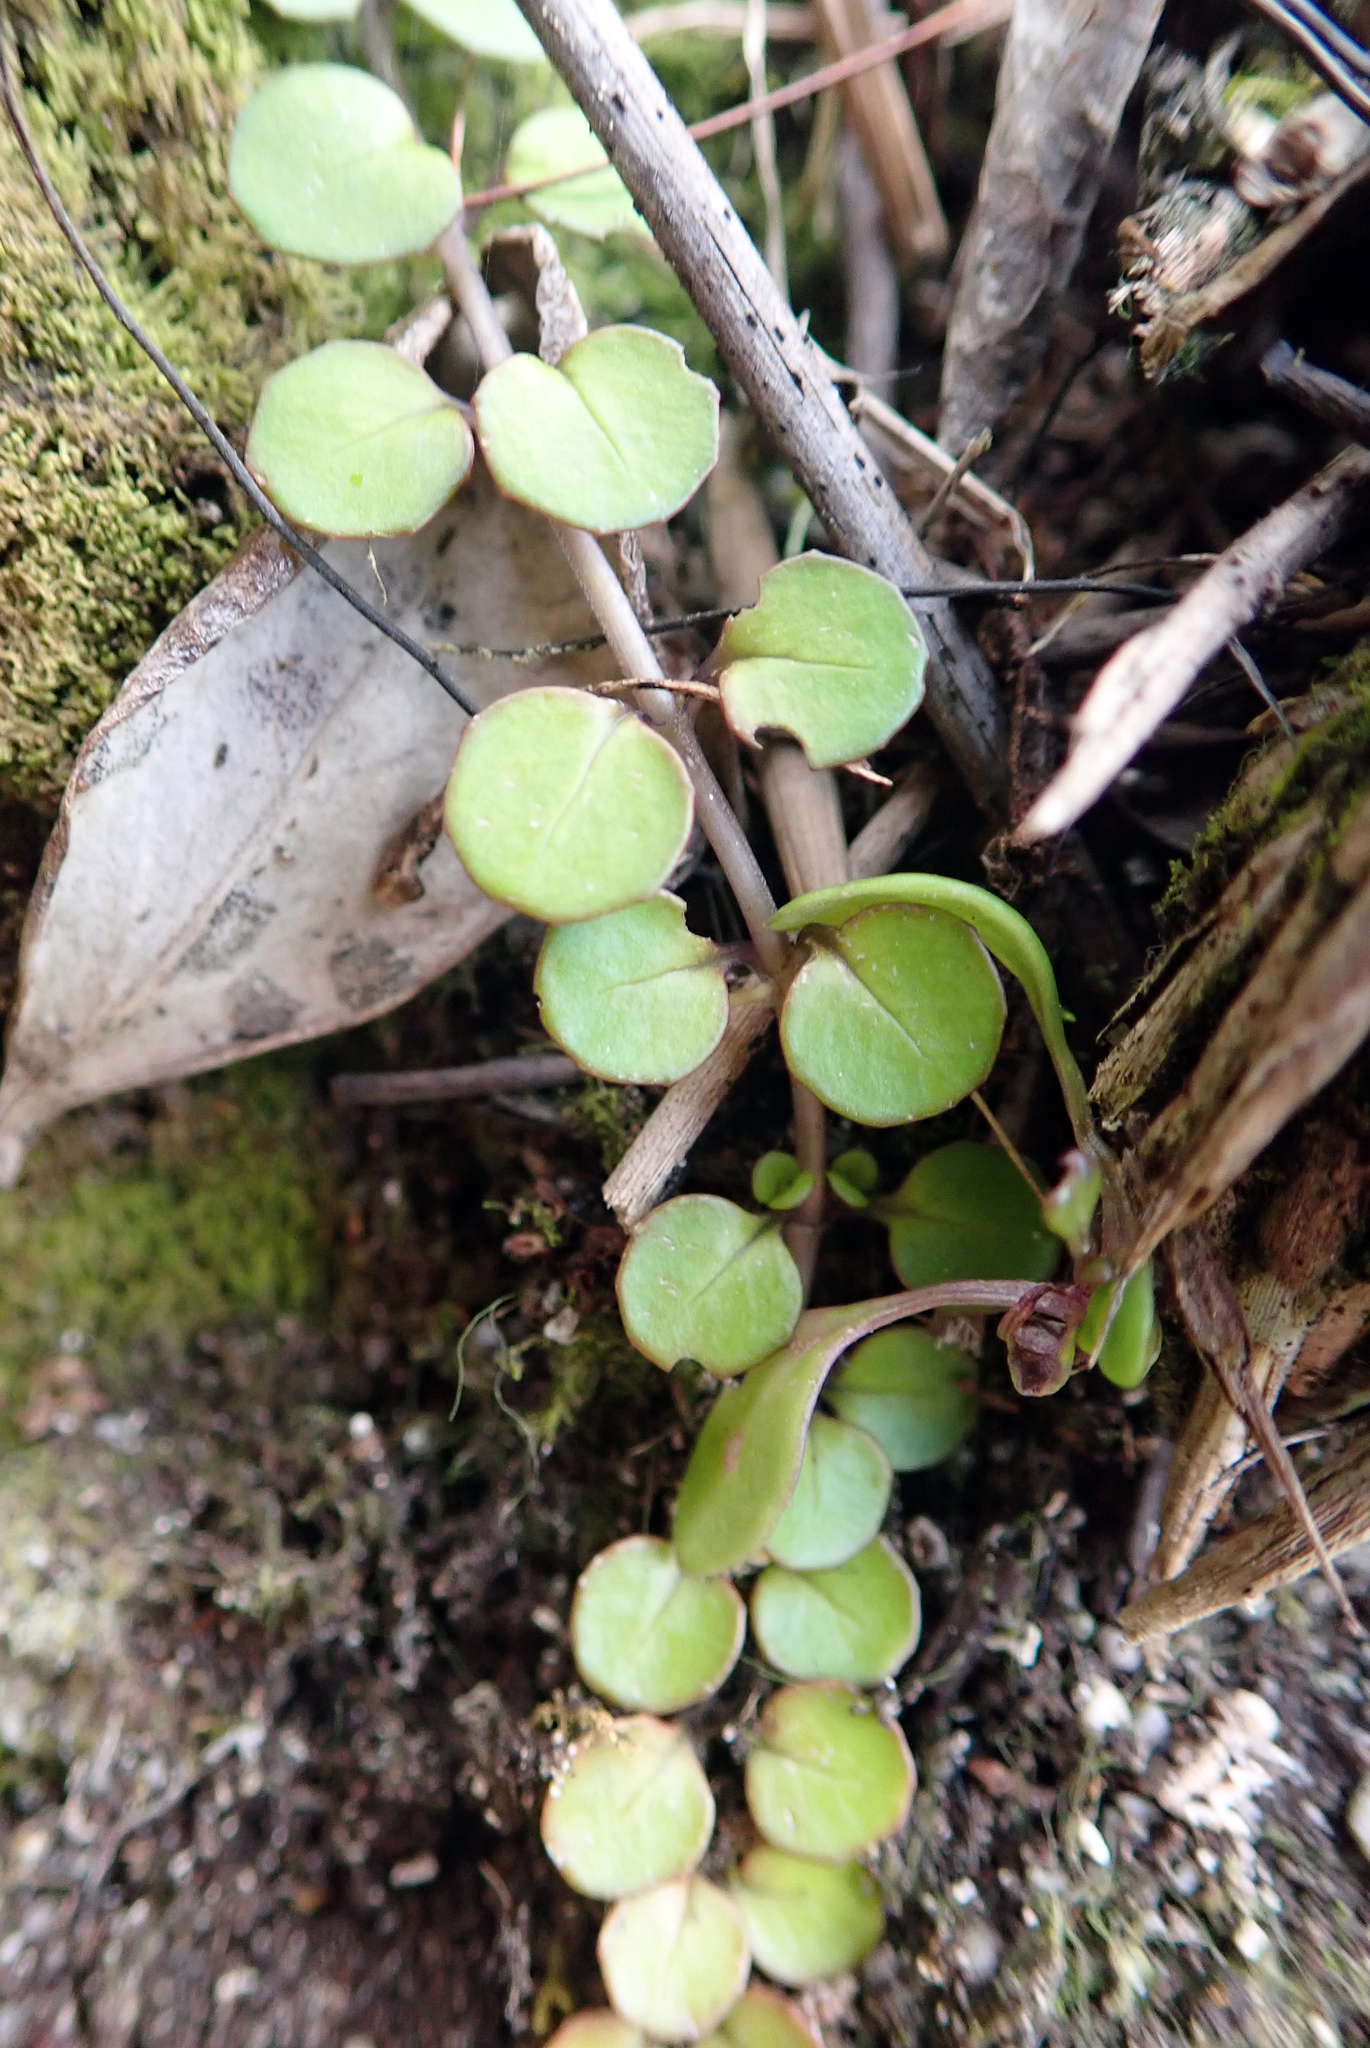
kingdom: Plantae
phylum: Tracheophyta
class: Magnoliopsida
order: Myrtales
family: Onagraceae
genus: Epilobium
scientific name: Epilobium nummularifolium
